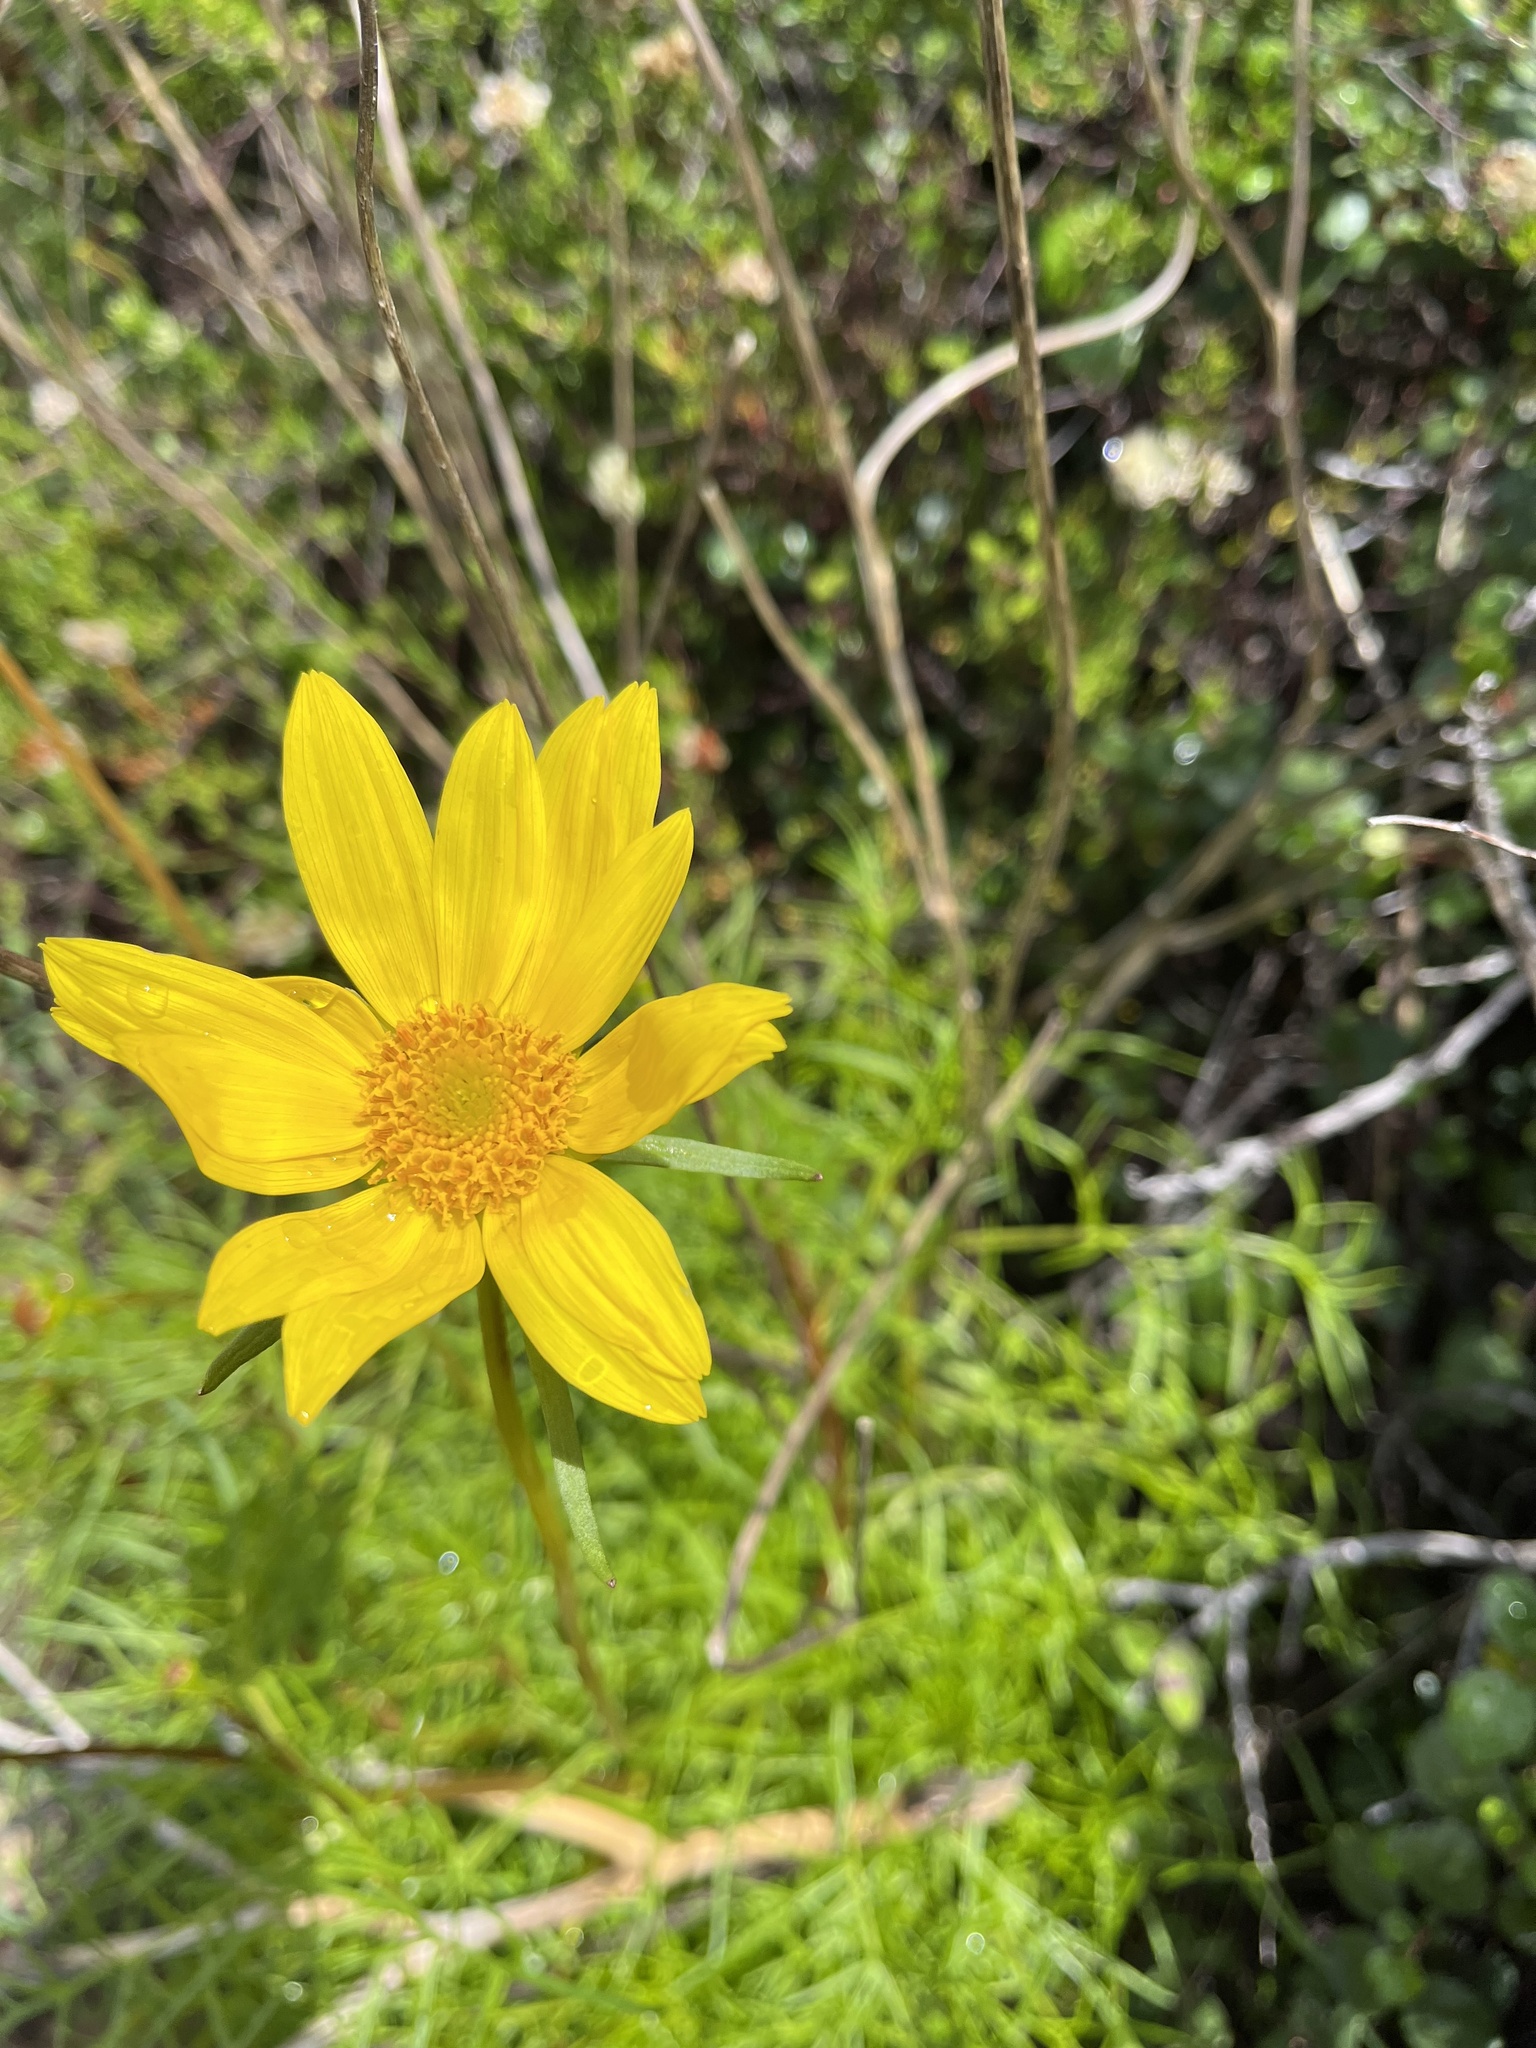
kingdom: Plantae
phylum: Tracheophyta
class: Magnoliopsida
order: Asterales
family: Asteraceae
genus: Coreopsis
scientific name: Coreopsis maritima
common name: Sea-dahlia
